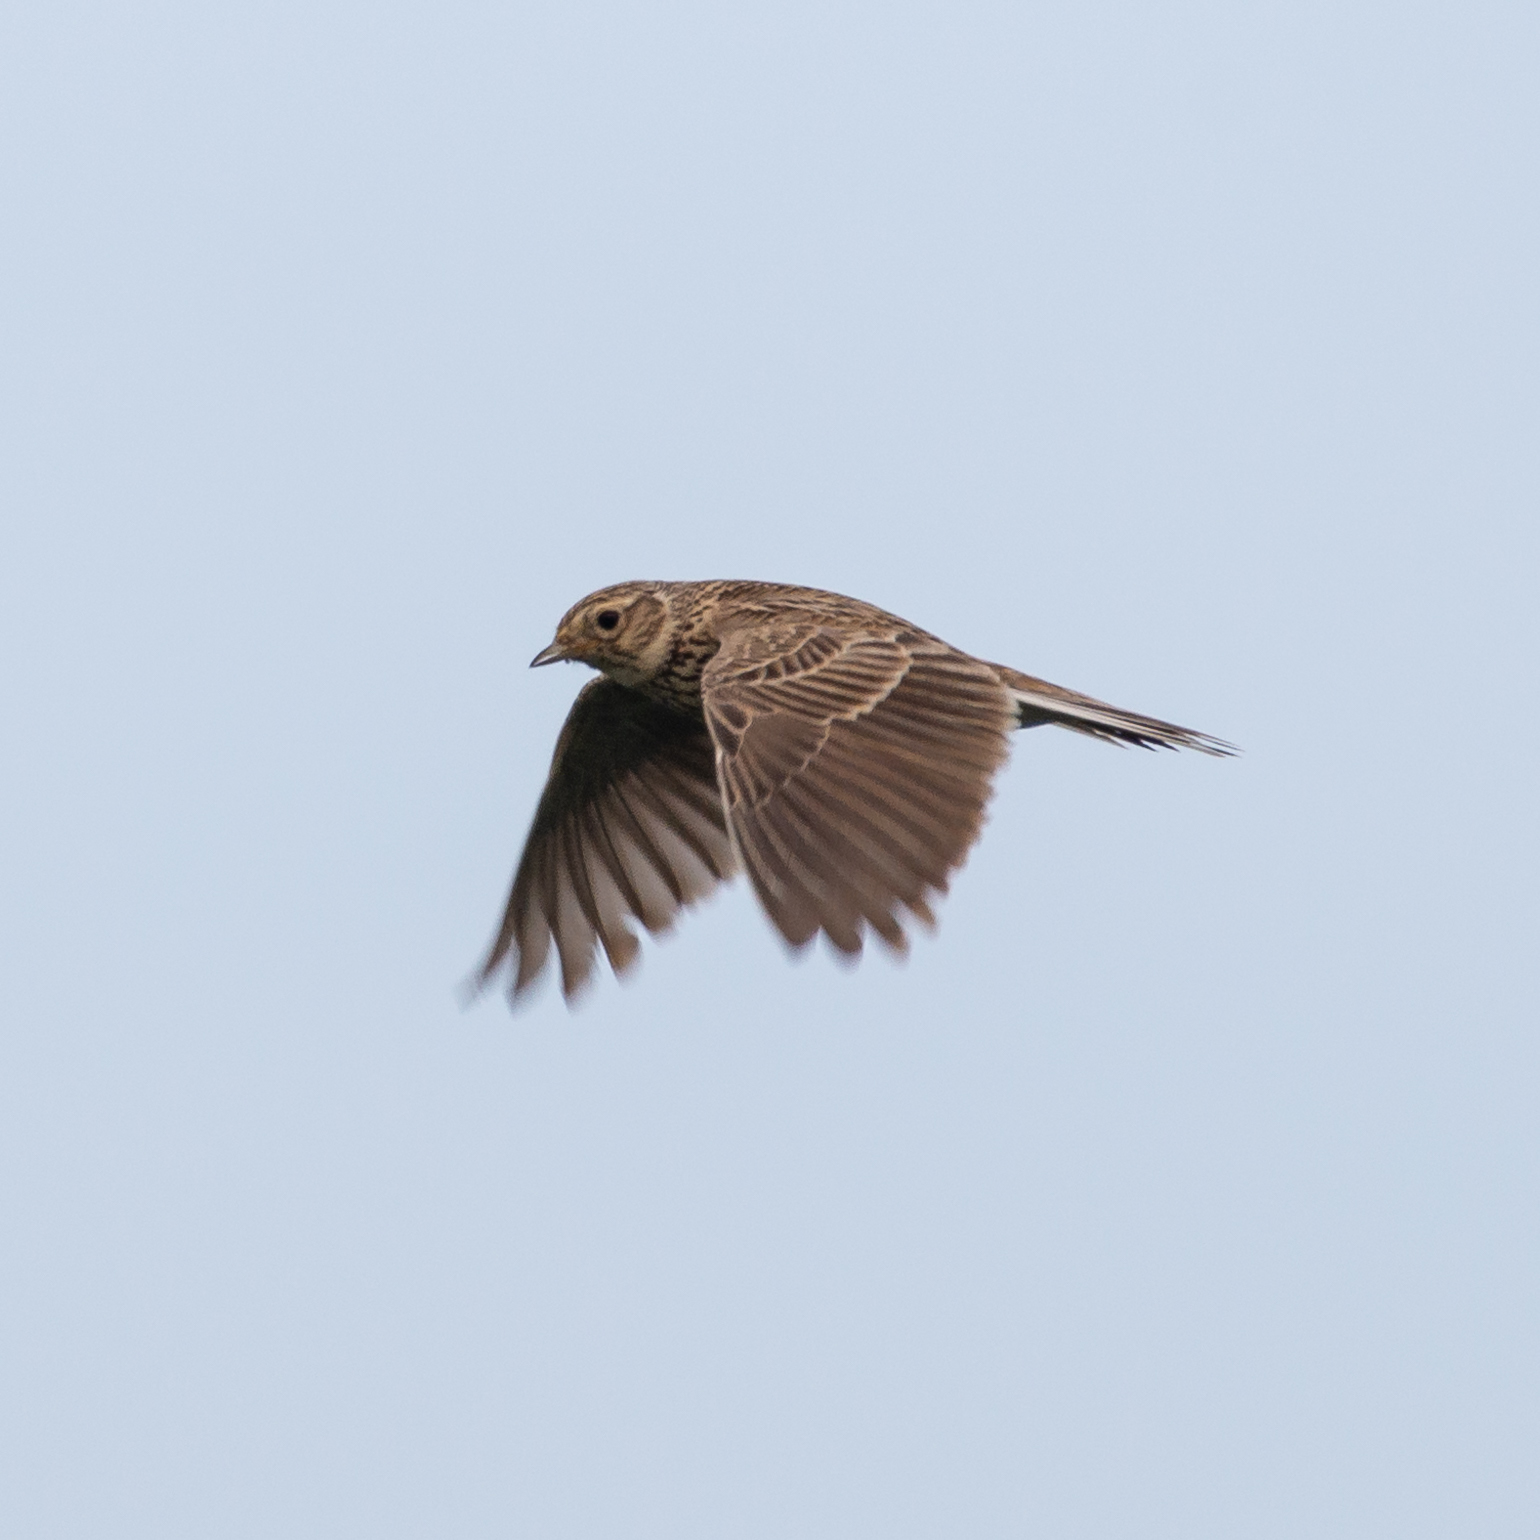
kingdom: Animalia
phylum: Chordata
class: Aves
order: Passeriformes
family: Alaudidae
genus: Alauda
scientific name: Alauda arvensis
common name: Eurasian skylark
